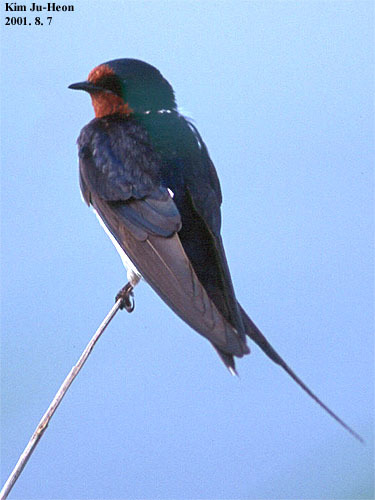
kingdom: Animalia
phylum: Chordata
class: Aves
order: Passeriformes
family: Hirundinidae
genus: Hirundo
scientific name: Hirundo rustica
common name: Barn swallow
